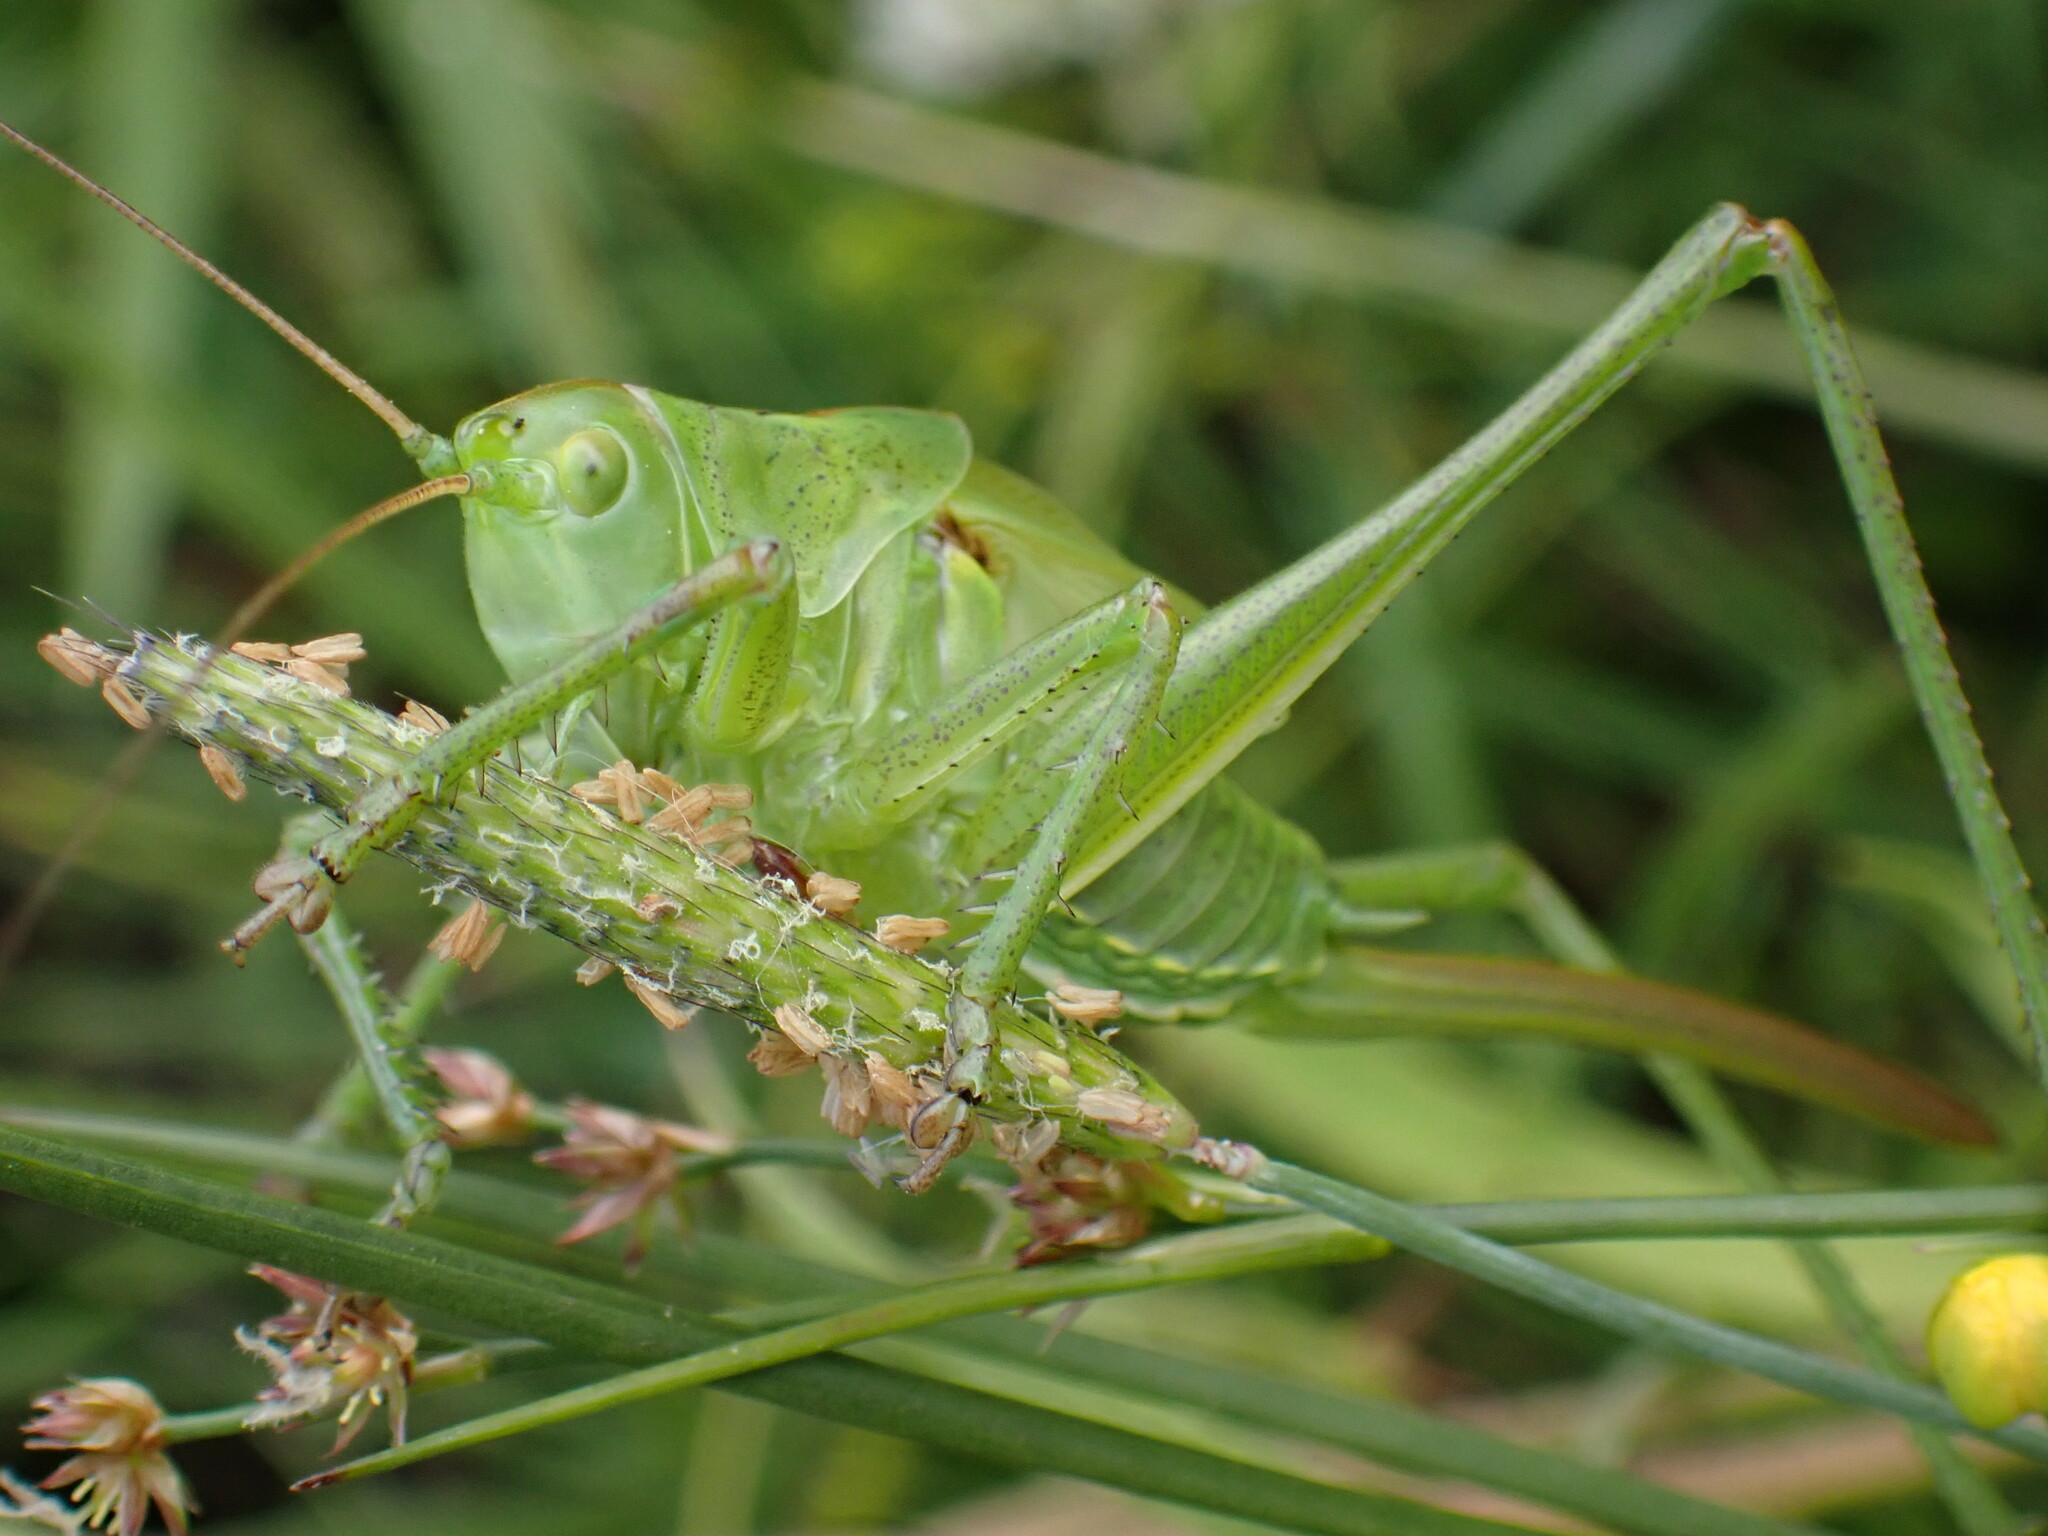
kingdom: Animalia
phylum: Arthropoda
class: Insecta
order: Orthoptera
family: Tettigoniidae
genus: Tettigonia
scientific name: Tettigonia viridissima
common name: Great green bush-cricket
